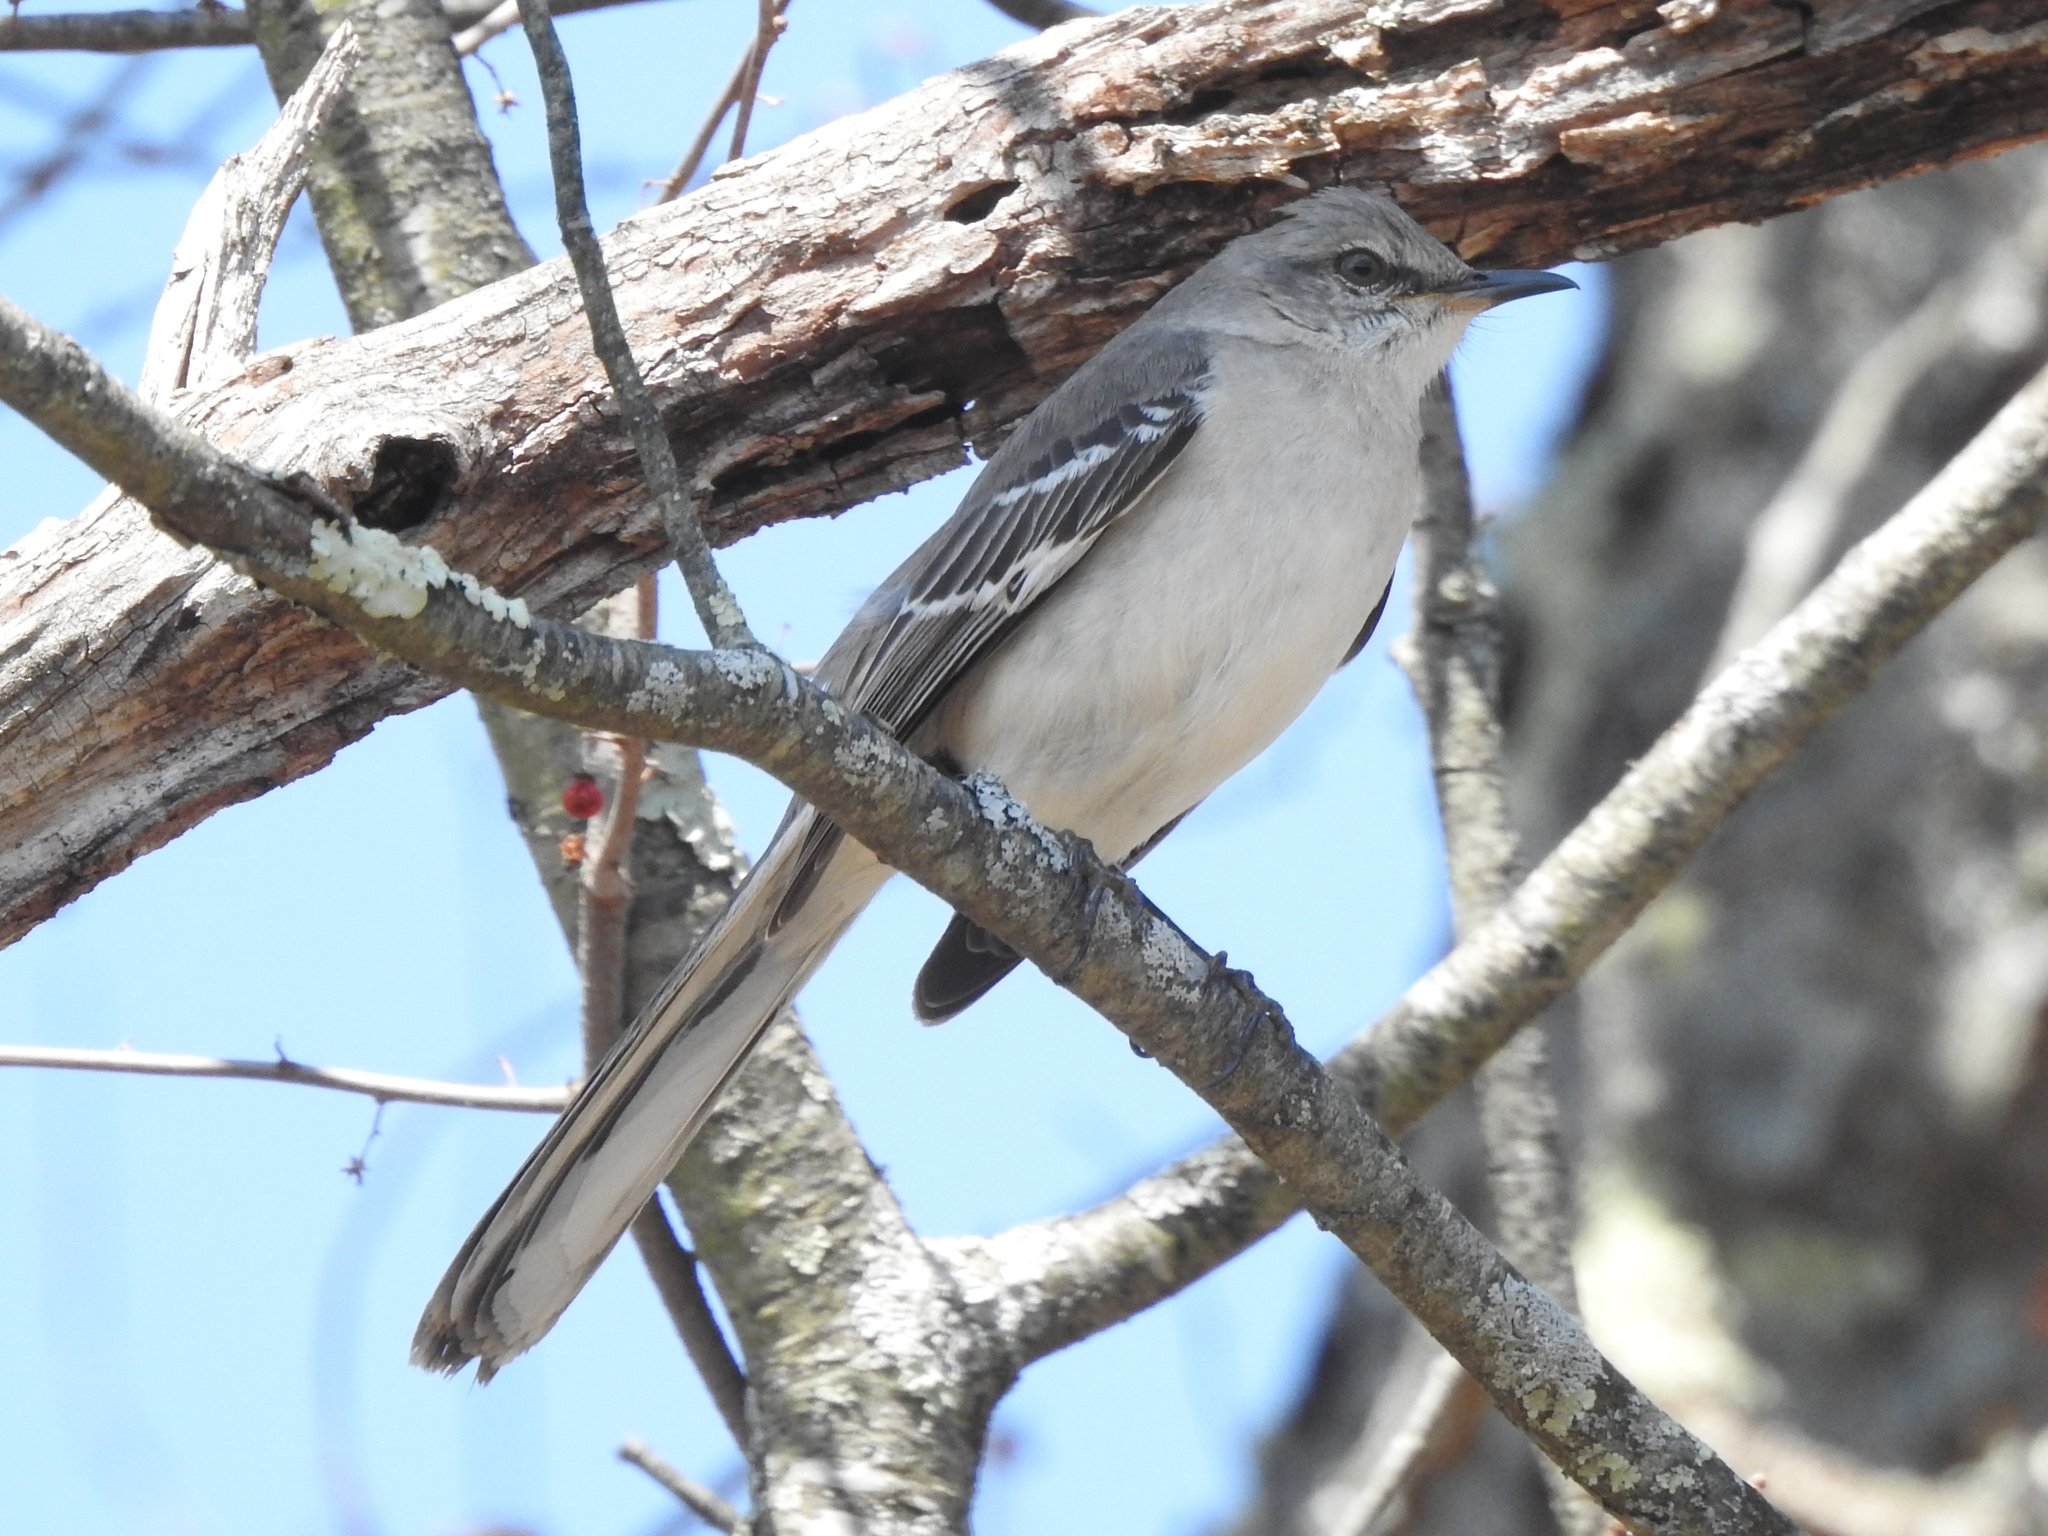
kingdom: Animalia
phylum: Chordata
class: Aves
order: Passeriformes
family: Mimidae
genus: Mimus
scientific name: Mimus polyglottos
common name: Northern mockingbird
